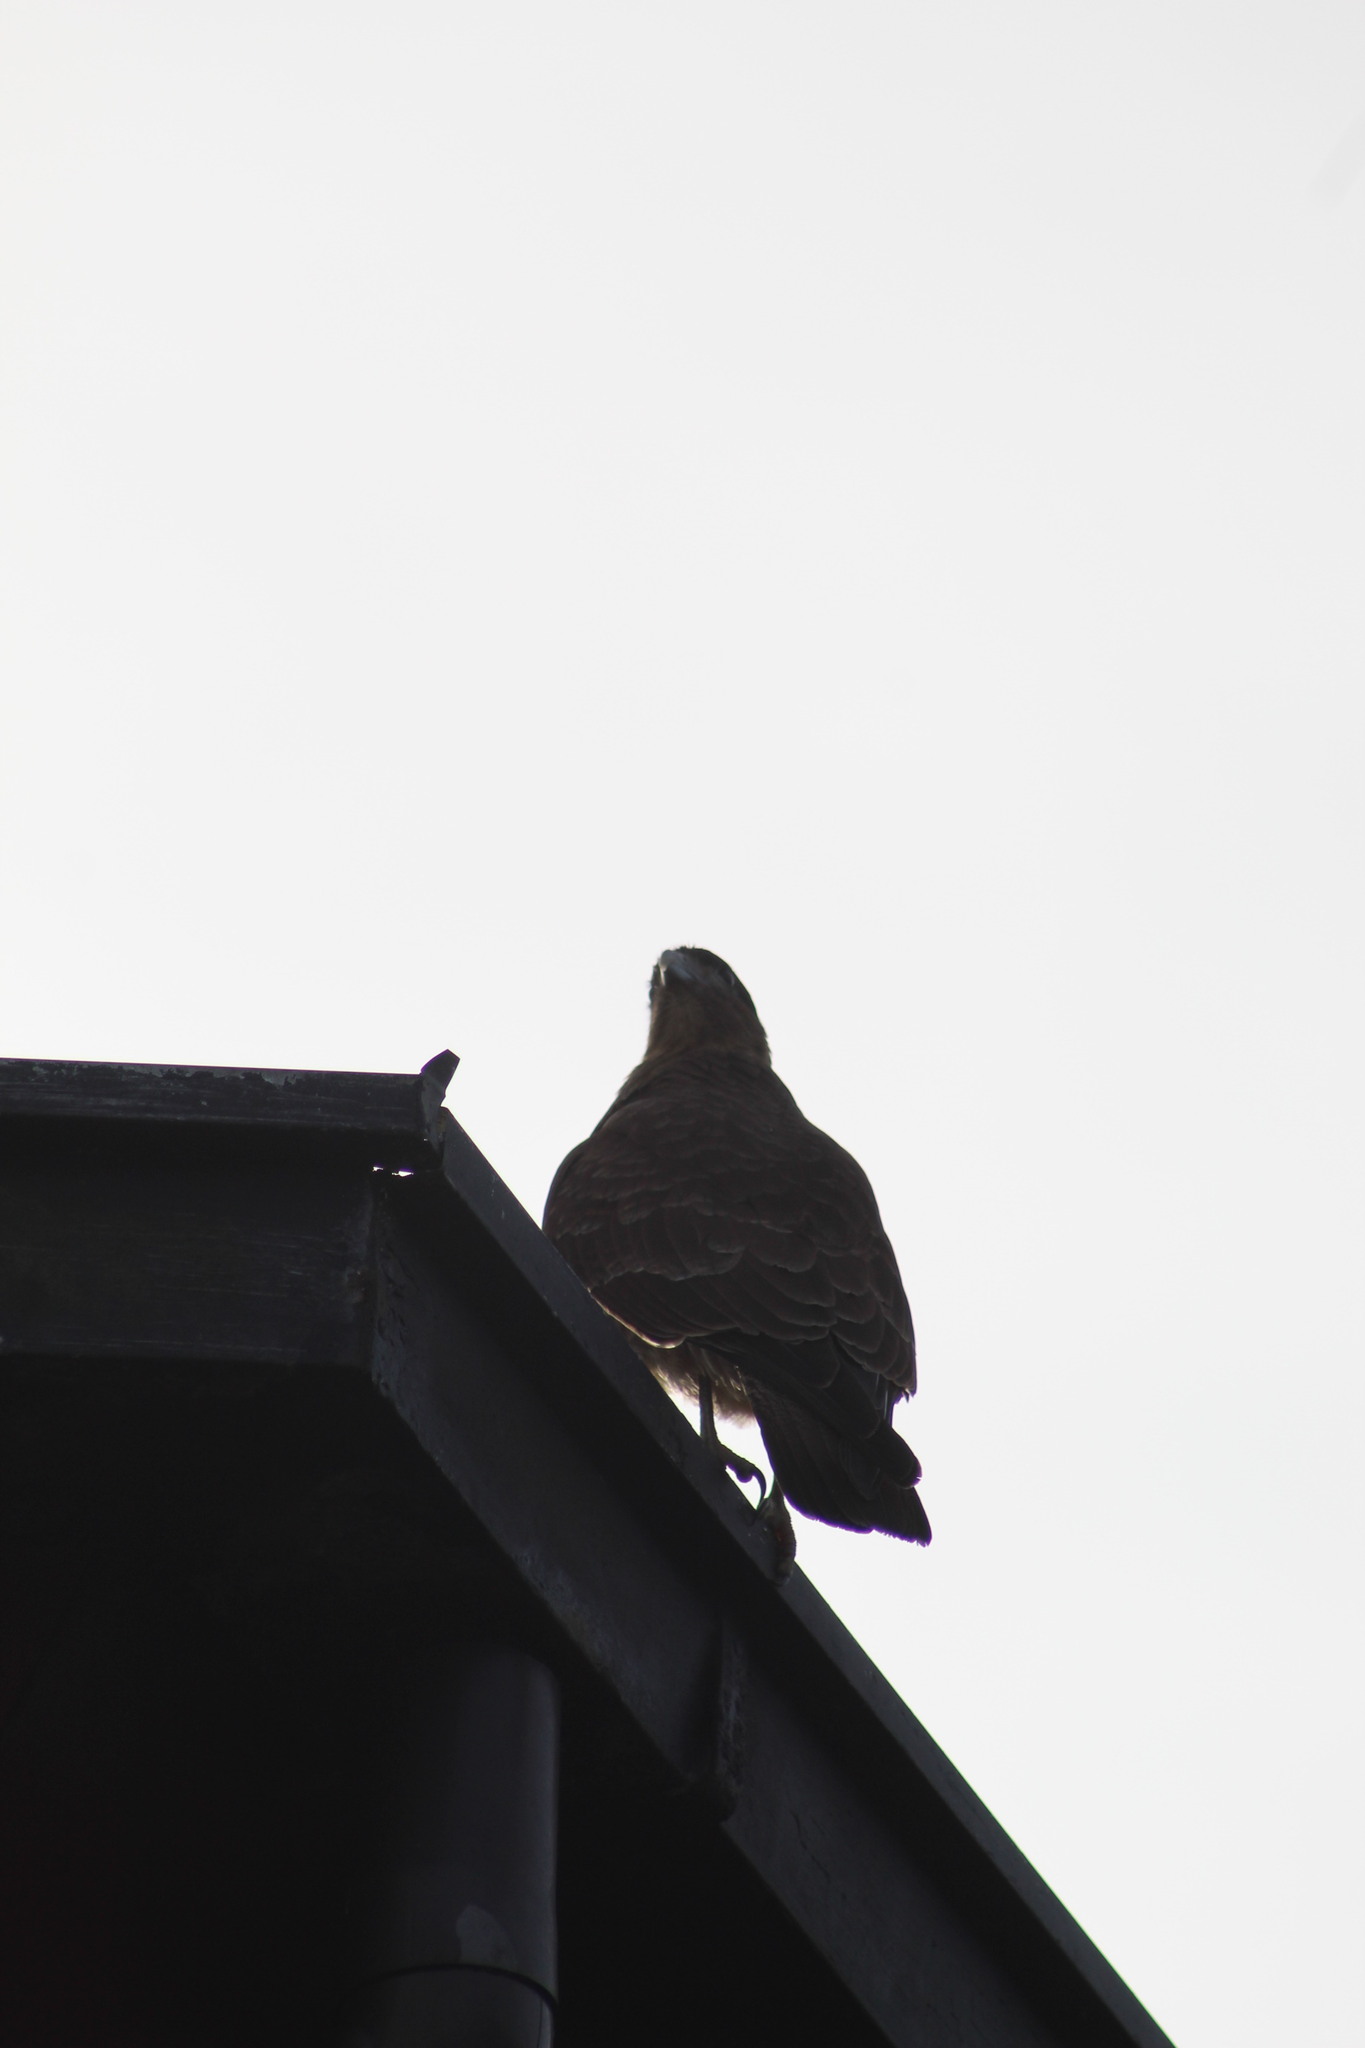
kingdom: Animalia
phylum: Chordata
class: Aves
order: Falconiformes
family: Falconidae
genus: Daptrius
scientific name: Daptrius
